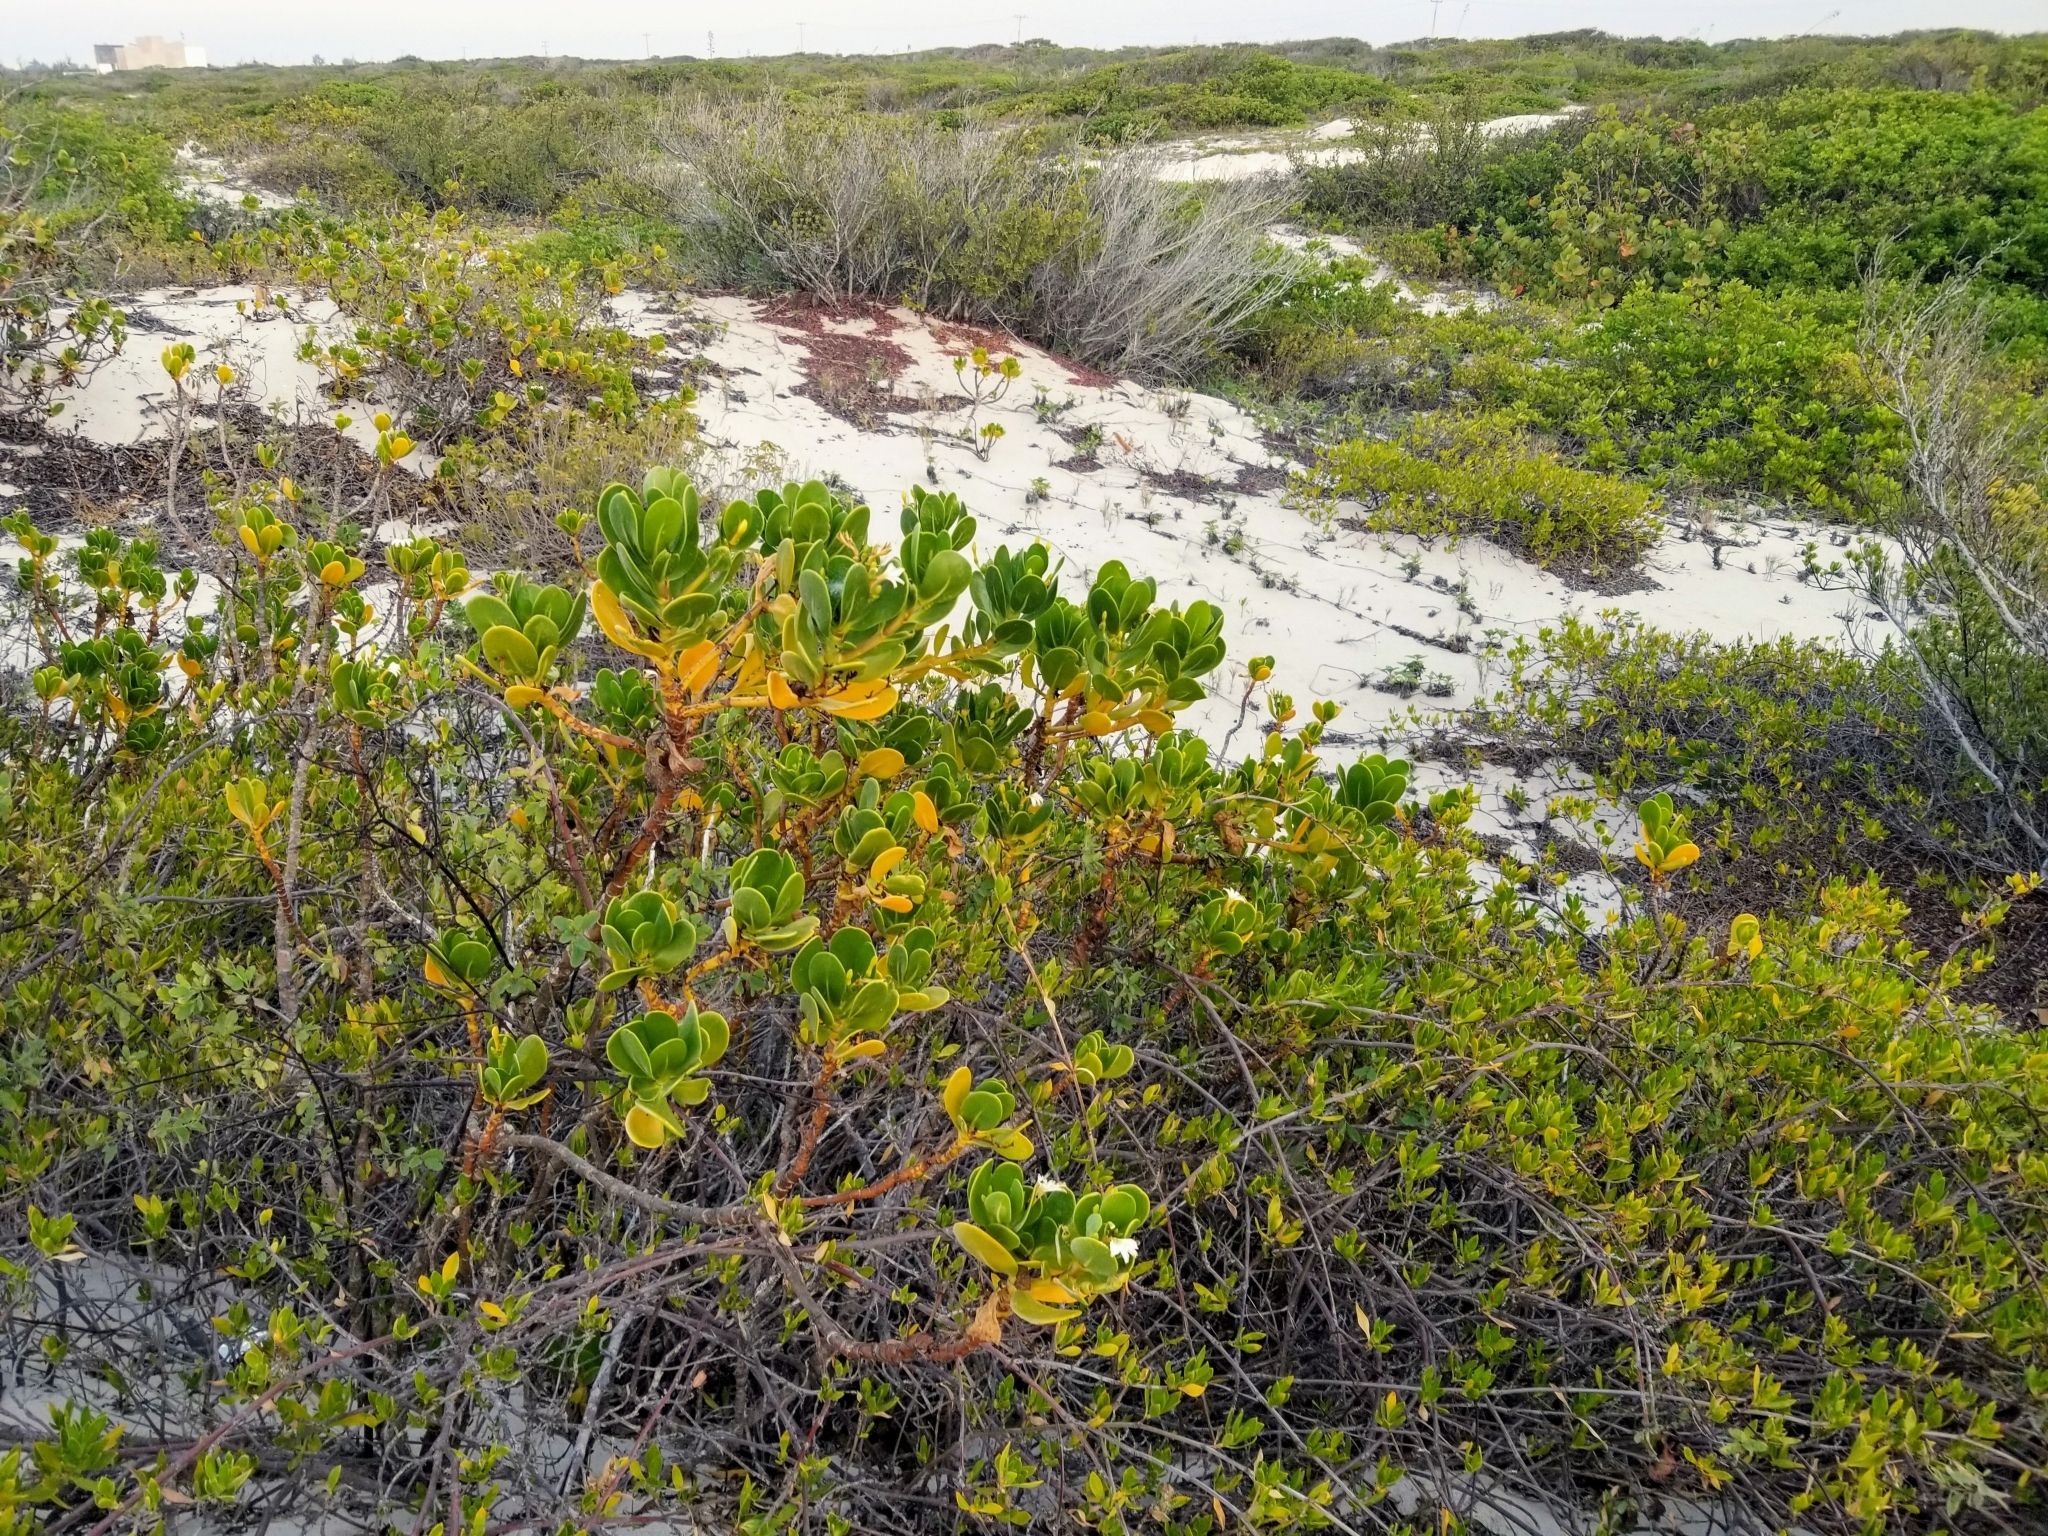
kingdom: Plantae
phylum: Tracheophyta
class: Magnoliopsida
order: Asterales
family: Goodeniaceae
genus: Scaevola
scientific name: Scaevola plumieri
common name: Gull feed
